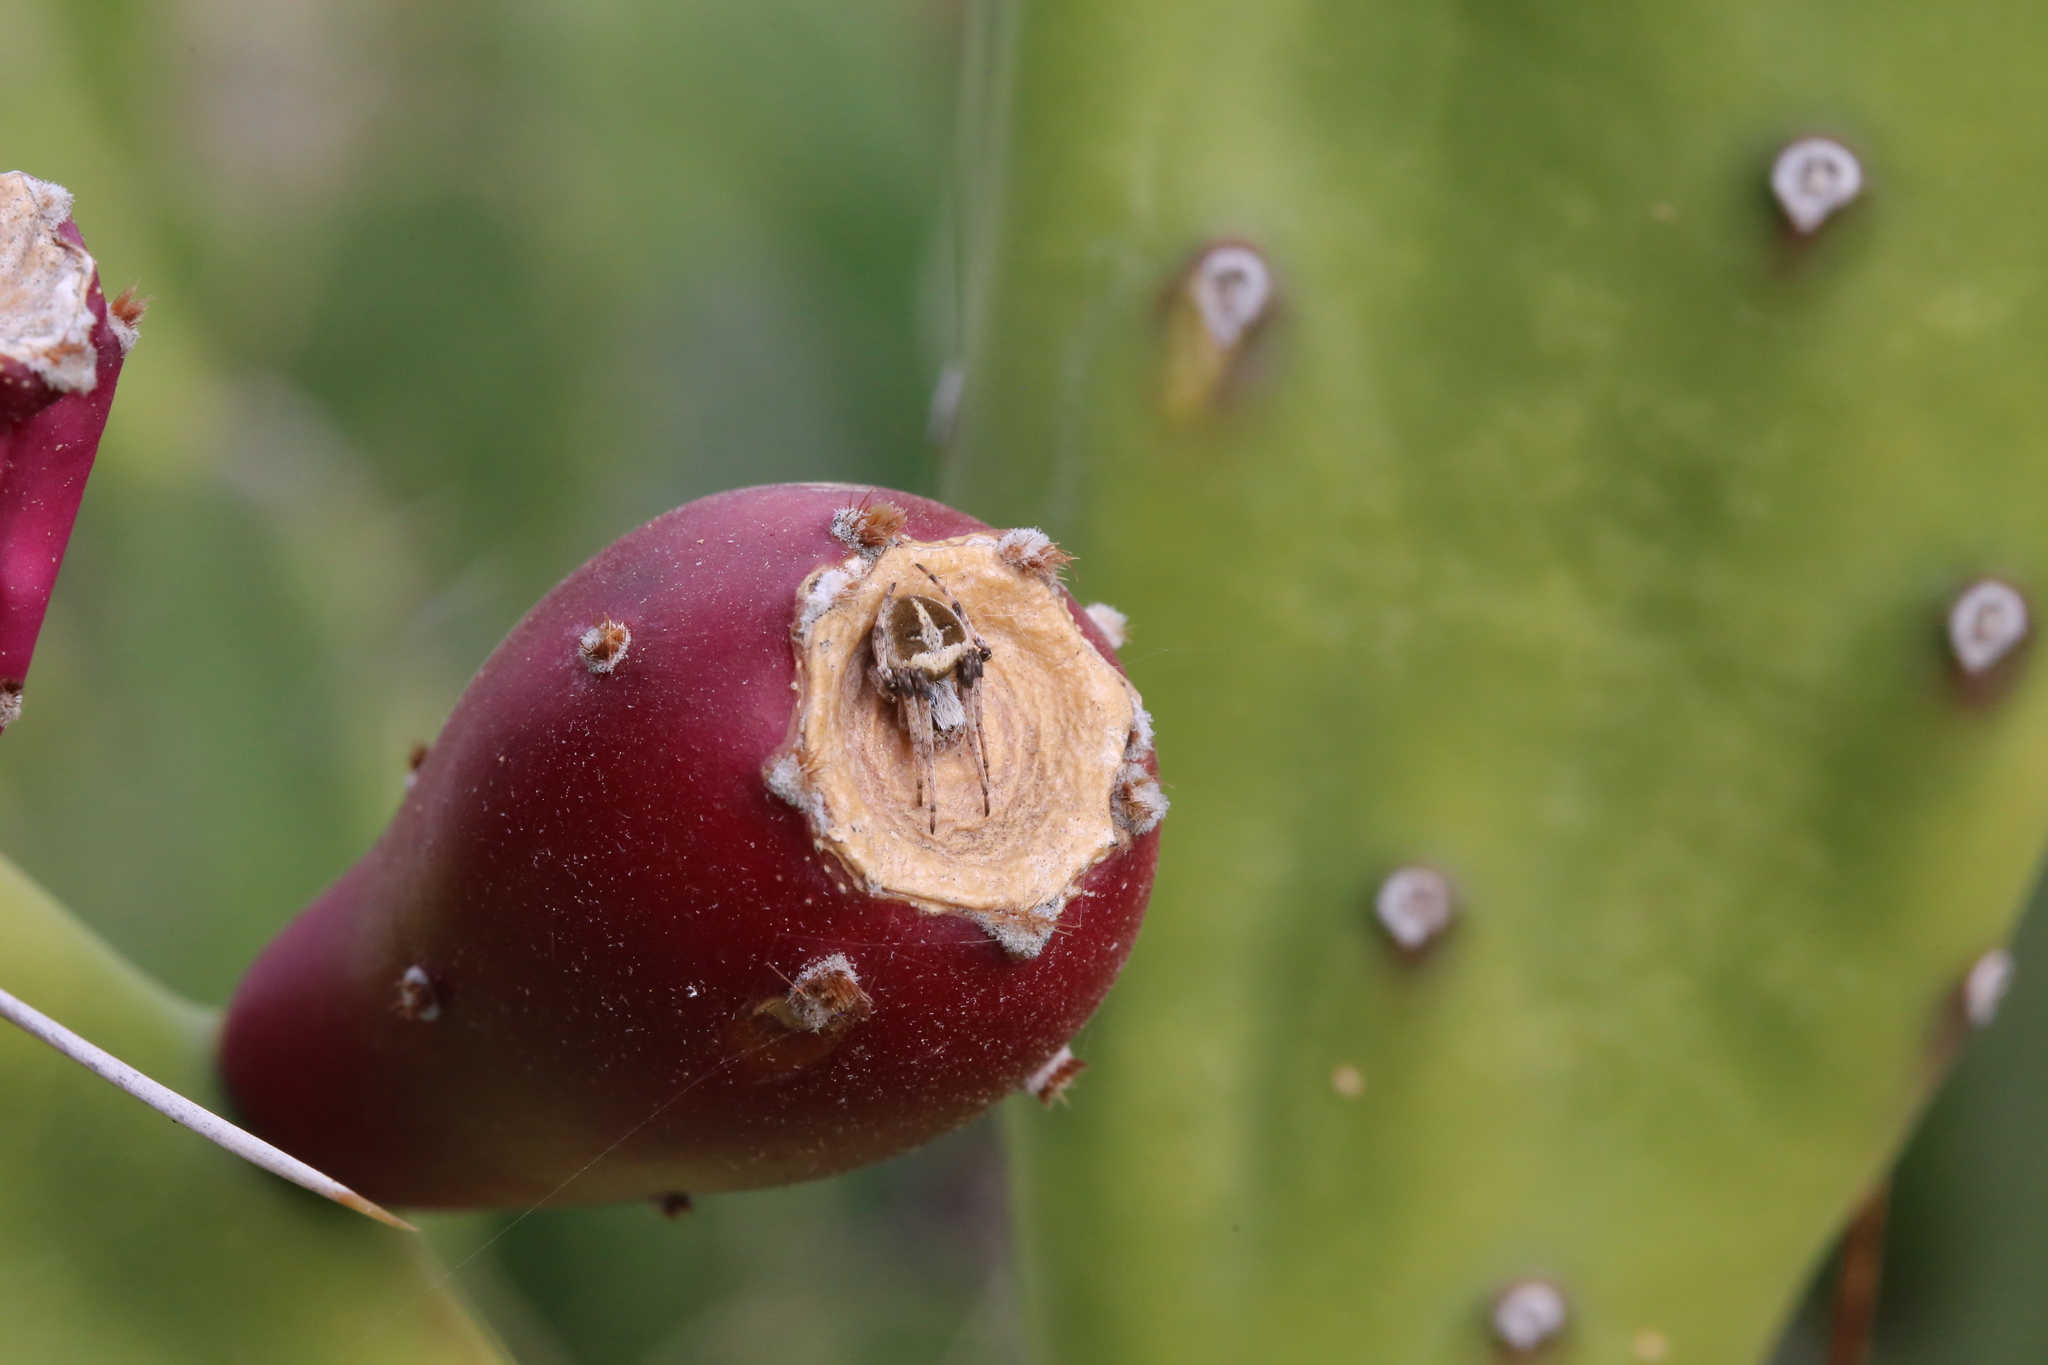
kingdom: Animalia
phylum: Arthropoda
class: Arachnida
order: Araneae
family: Araneidae
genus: Agalenatea
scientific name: Agalenatea redii
